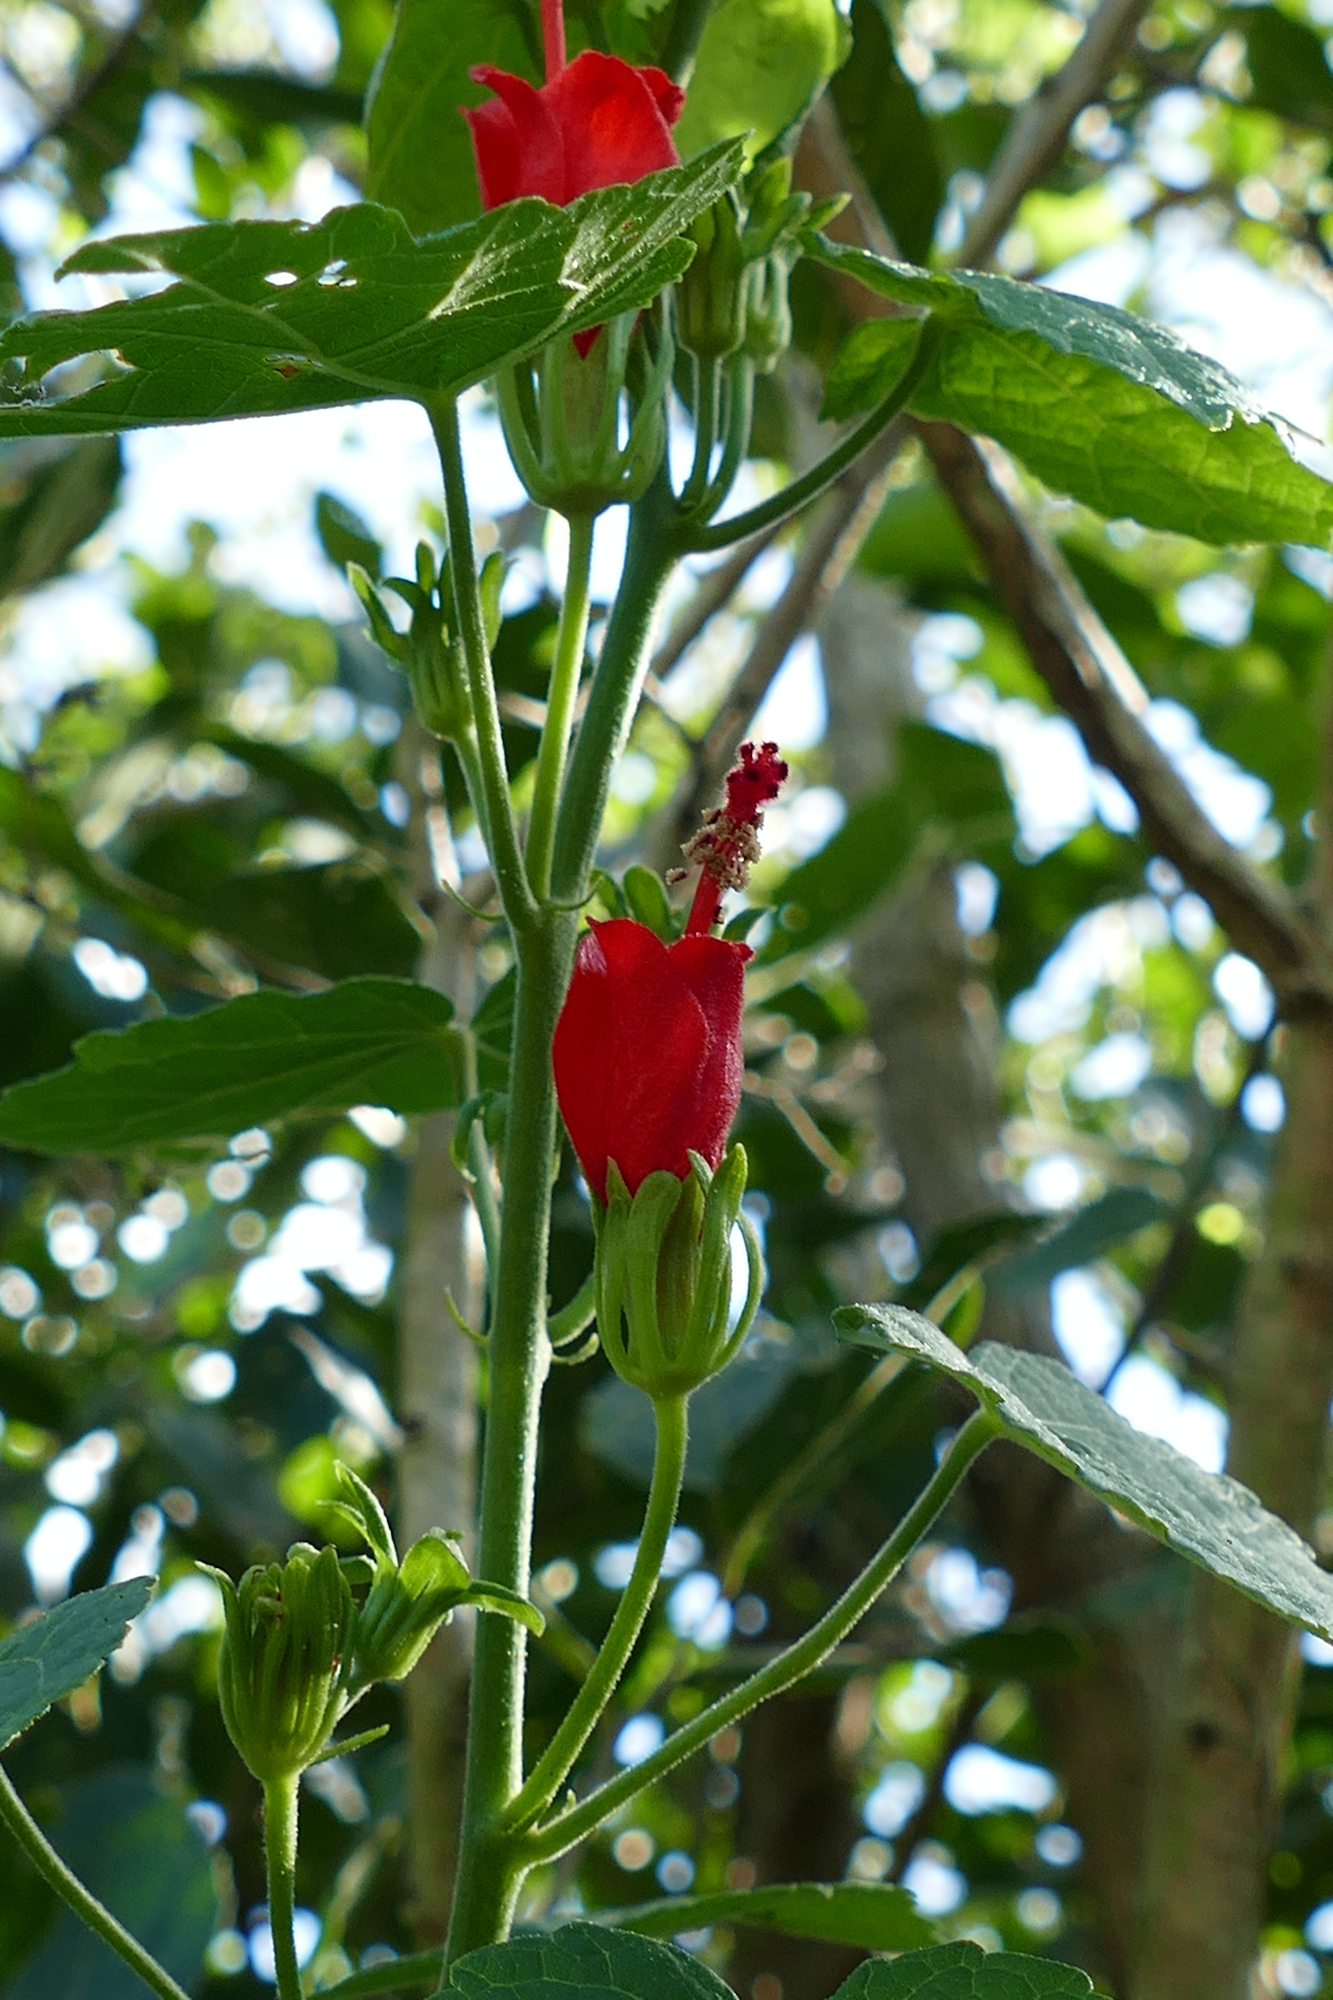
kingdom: Plantae
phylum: Tracheophyta
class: Magnoliopsida
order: Malvales
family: Malvaceae
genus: Malvaviscus
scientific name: Malvaviscus arboreus
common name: Wax mallow
